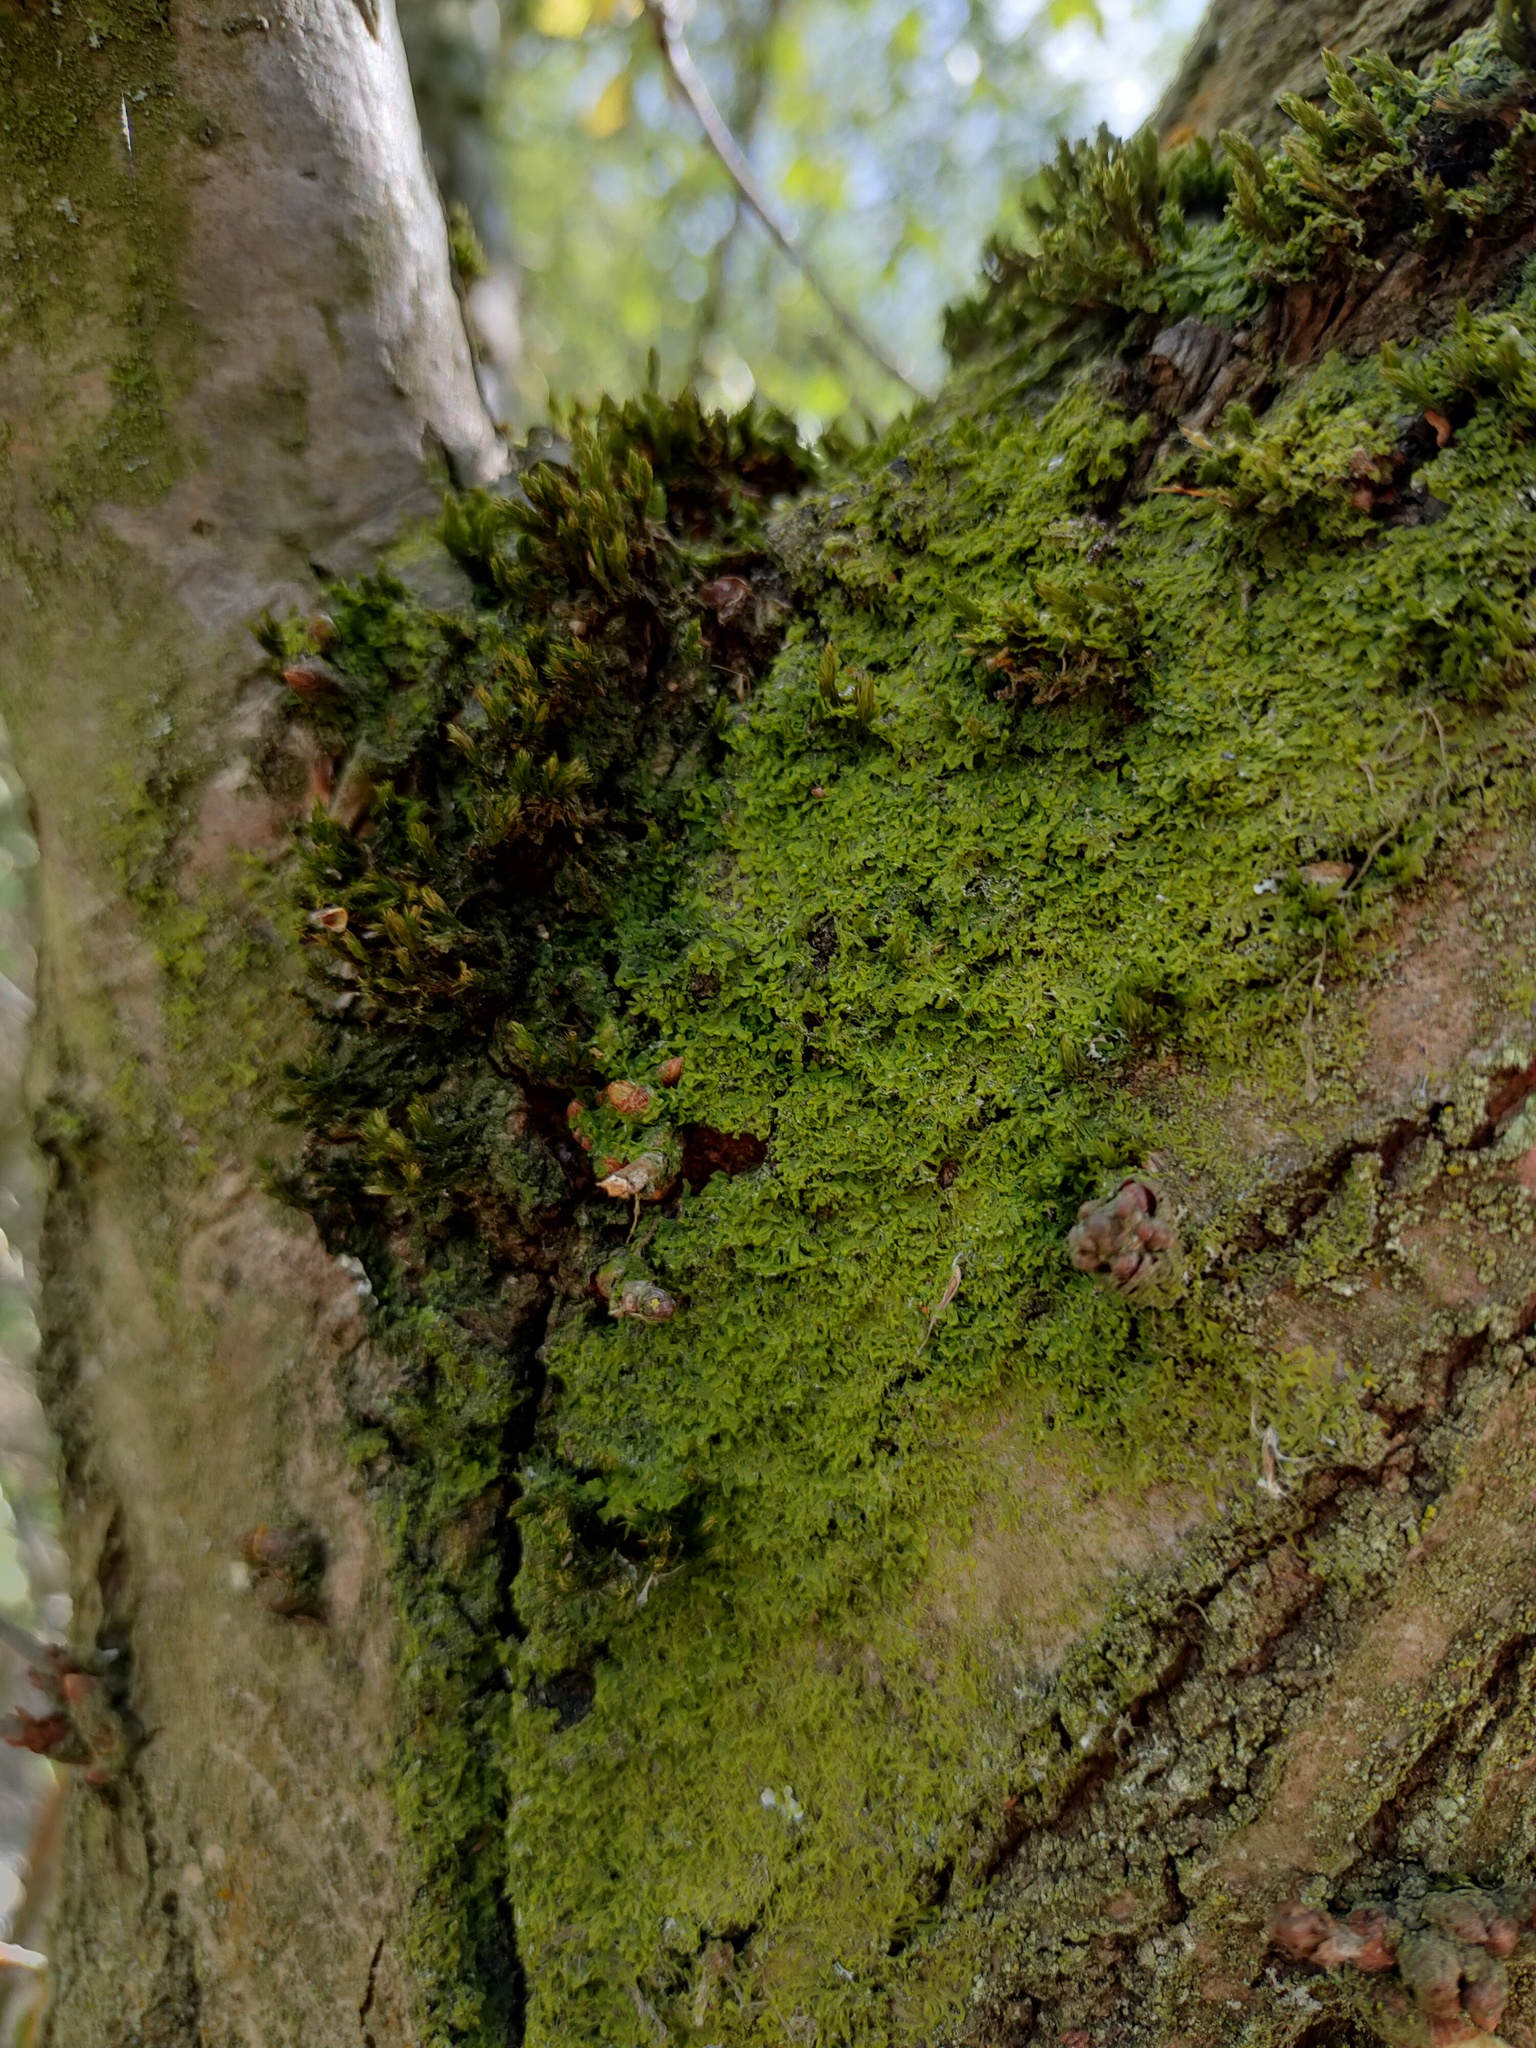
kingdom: Plantae
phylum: Bryophyta
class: Bryopsida
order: Orthotrichales
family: Orthotrichaceae
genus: Lewinskya
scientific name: Lewinskya affinis
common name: Wood bristle-moss
